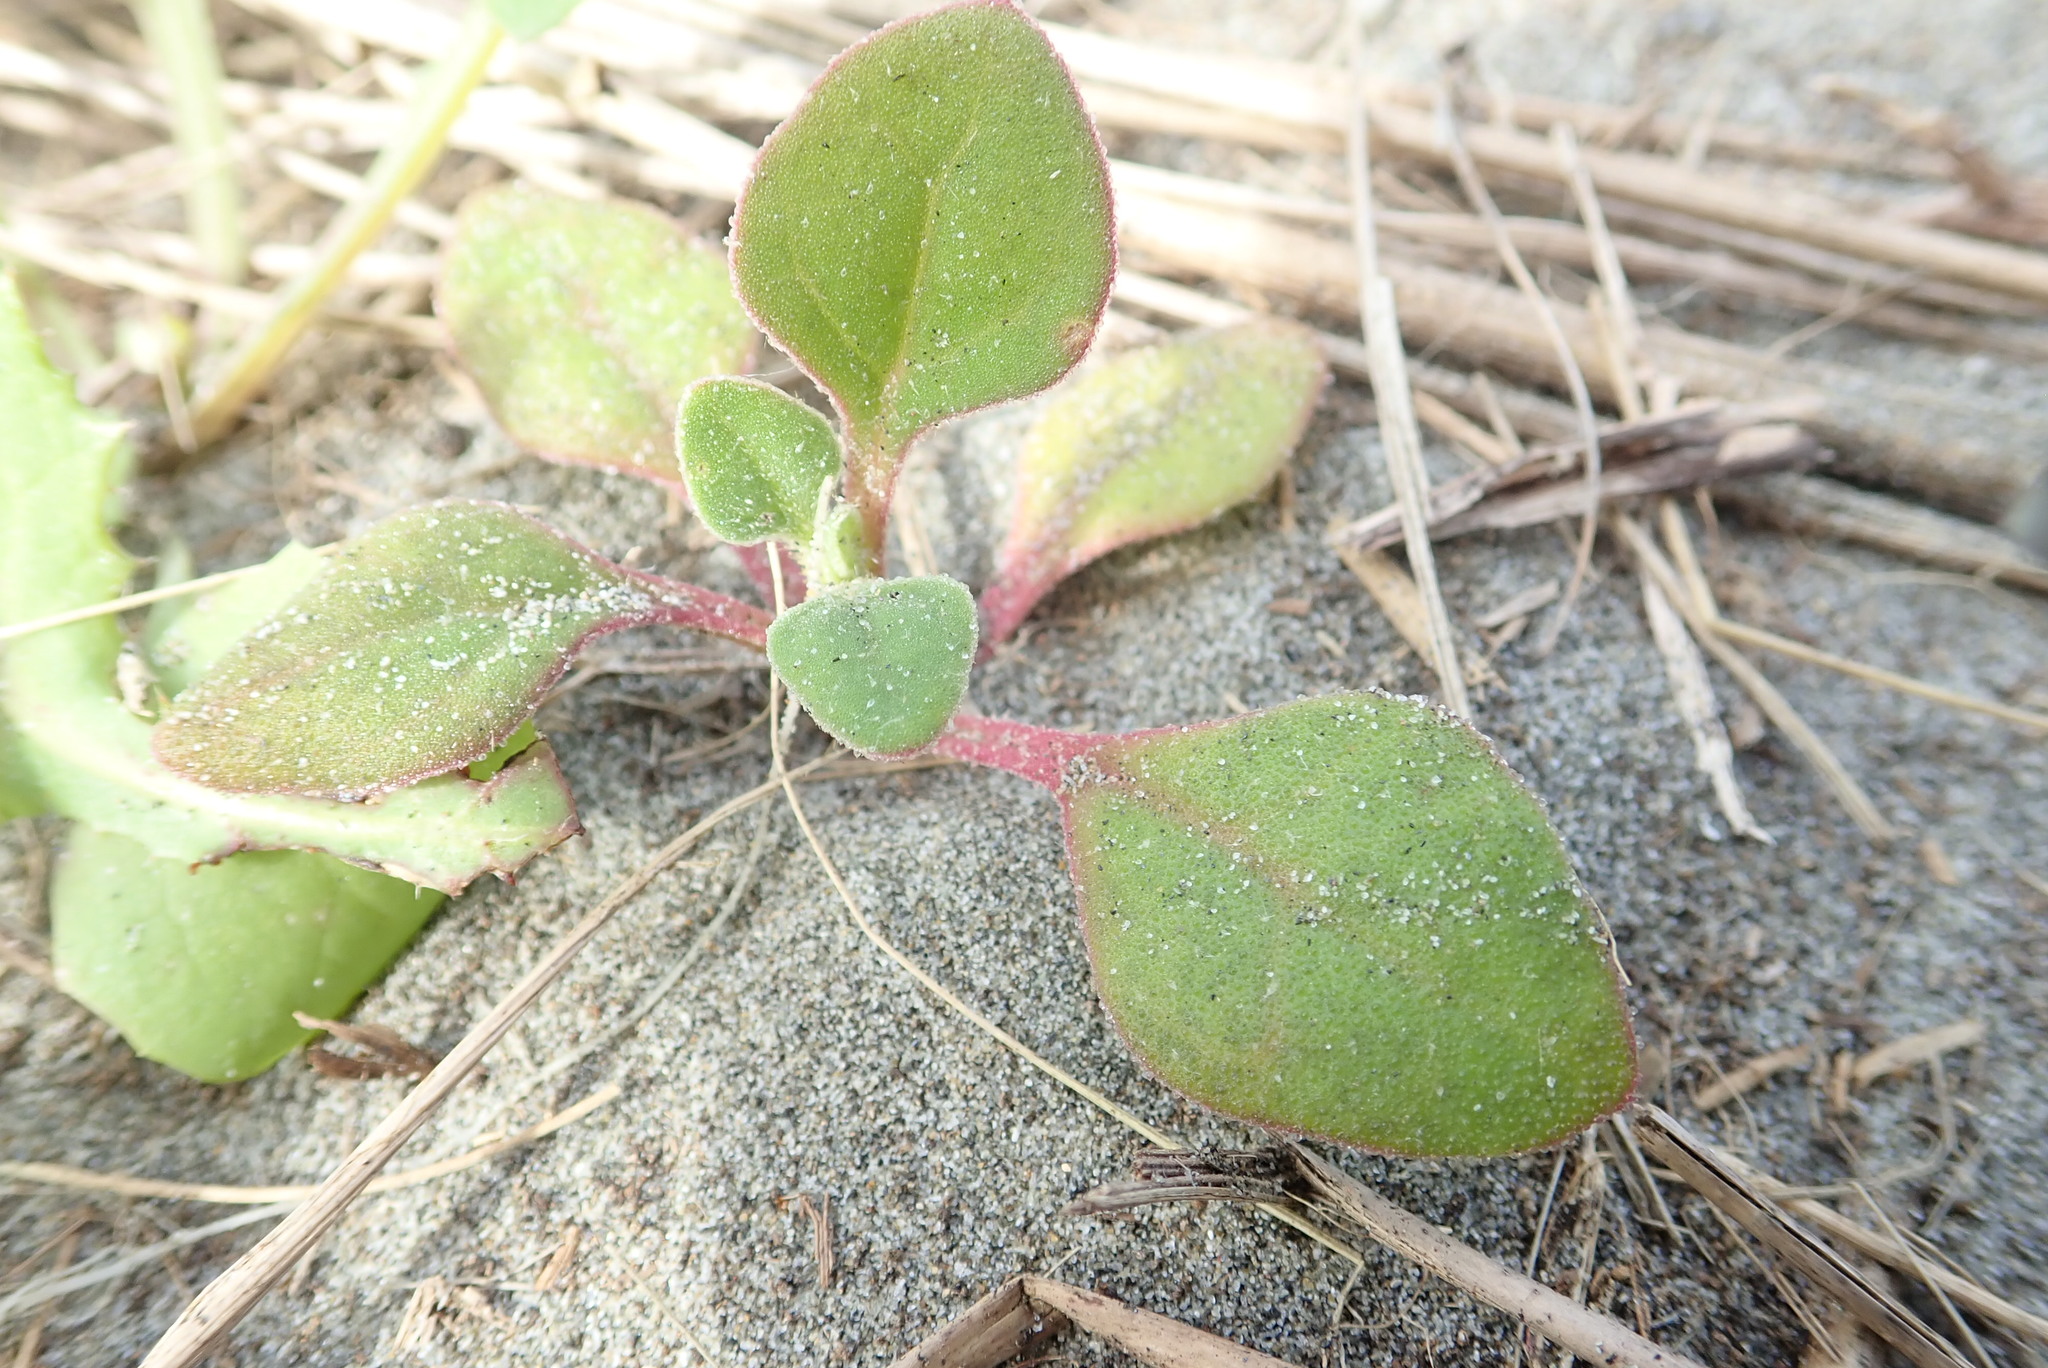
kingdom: Plantae
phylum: Tracheophyta
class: Magnoliopsida
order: Caryophyllales
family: Aizoaceae
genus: Tetragonia
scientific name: Tetragonia implexicoma
